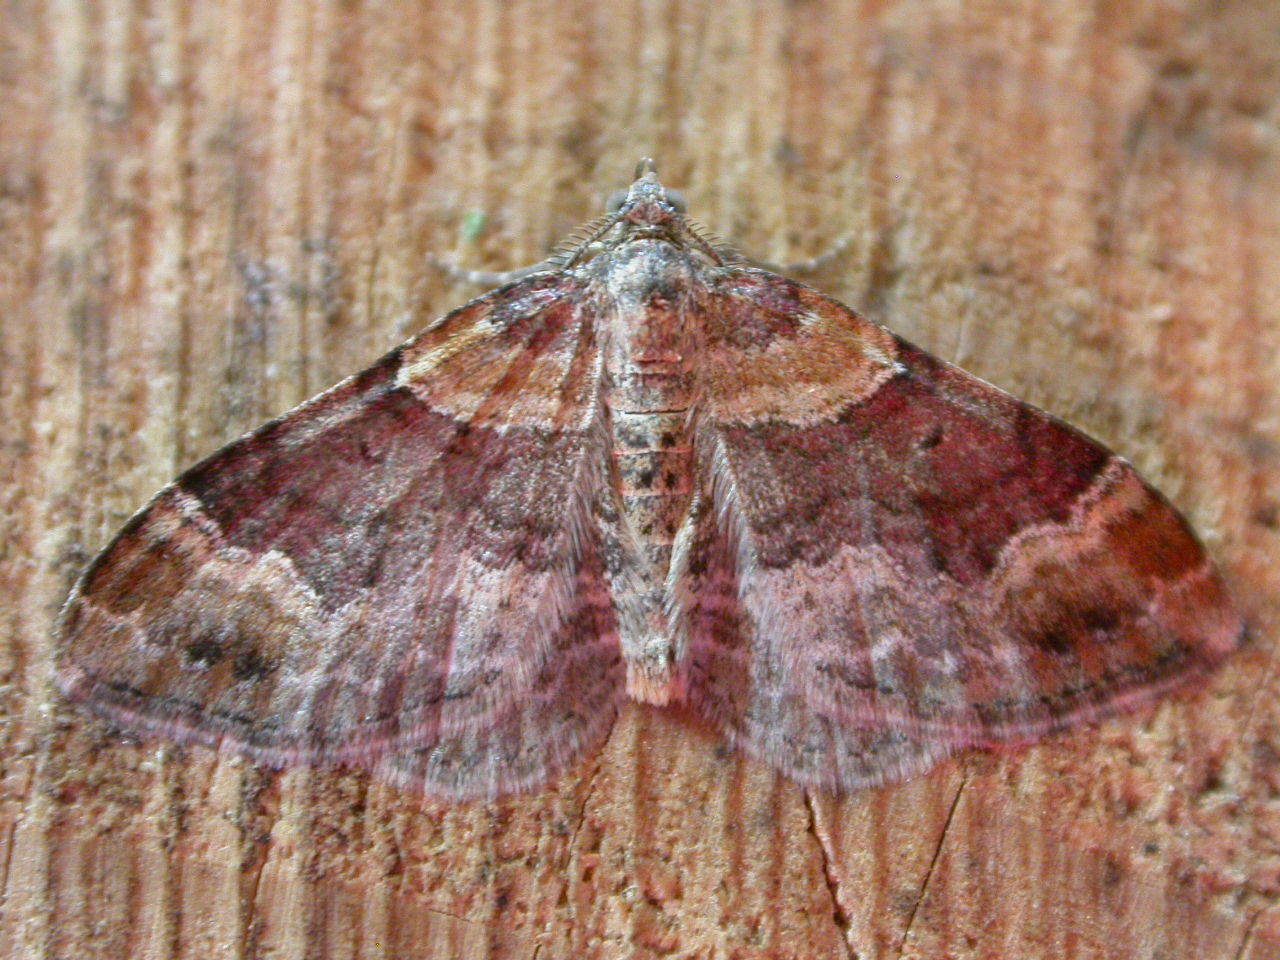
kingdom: Animalia
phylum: Arthropoda
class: Insecta
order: Lepidoptera
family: Geometridae
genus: Xanthorhoe
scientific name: Xanthorhoe spadicearia
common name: Red twin-spot carpet
